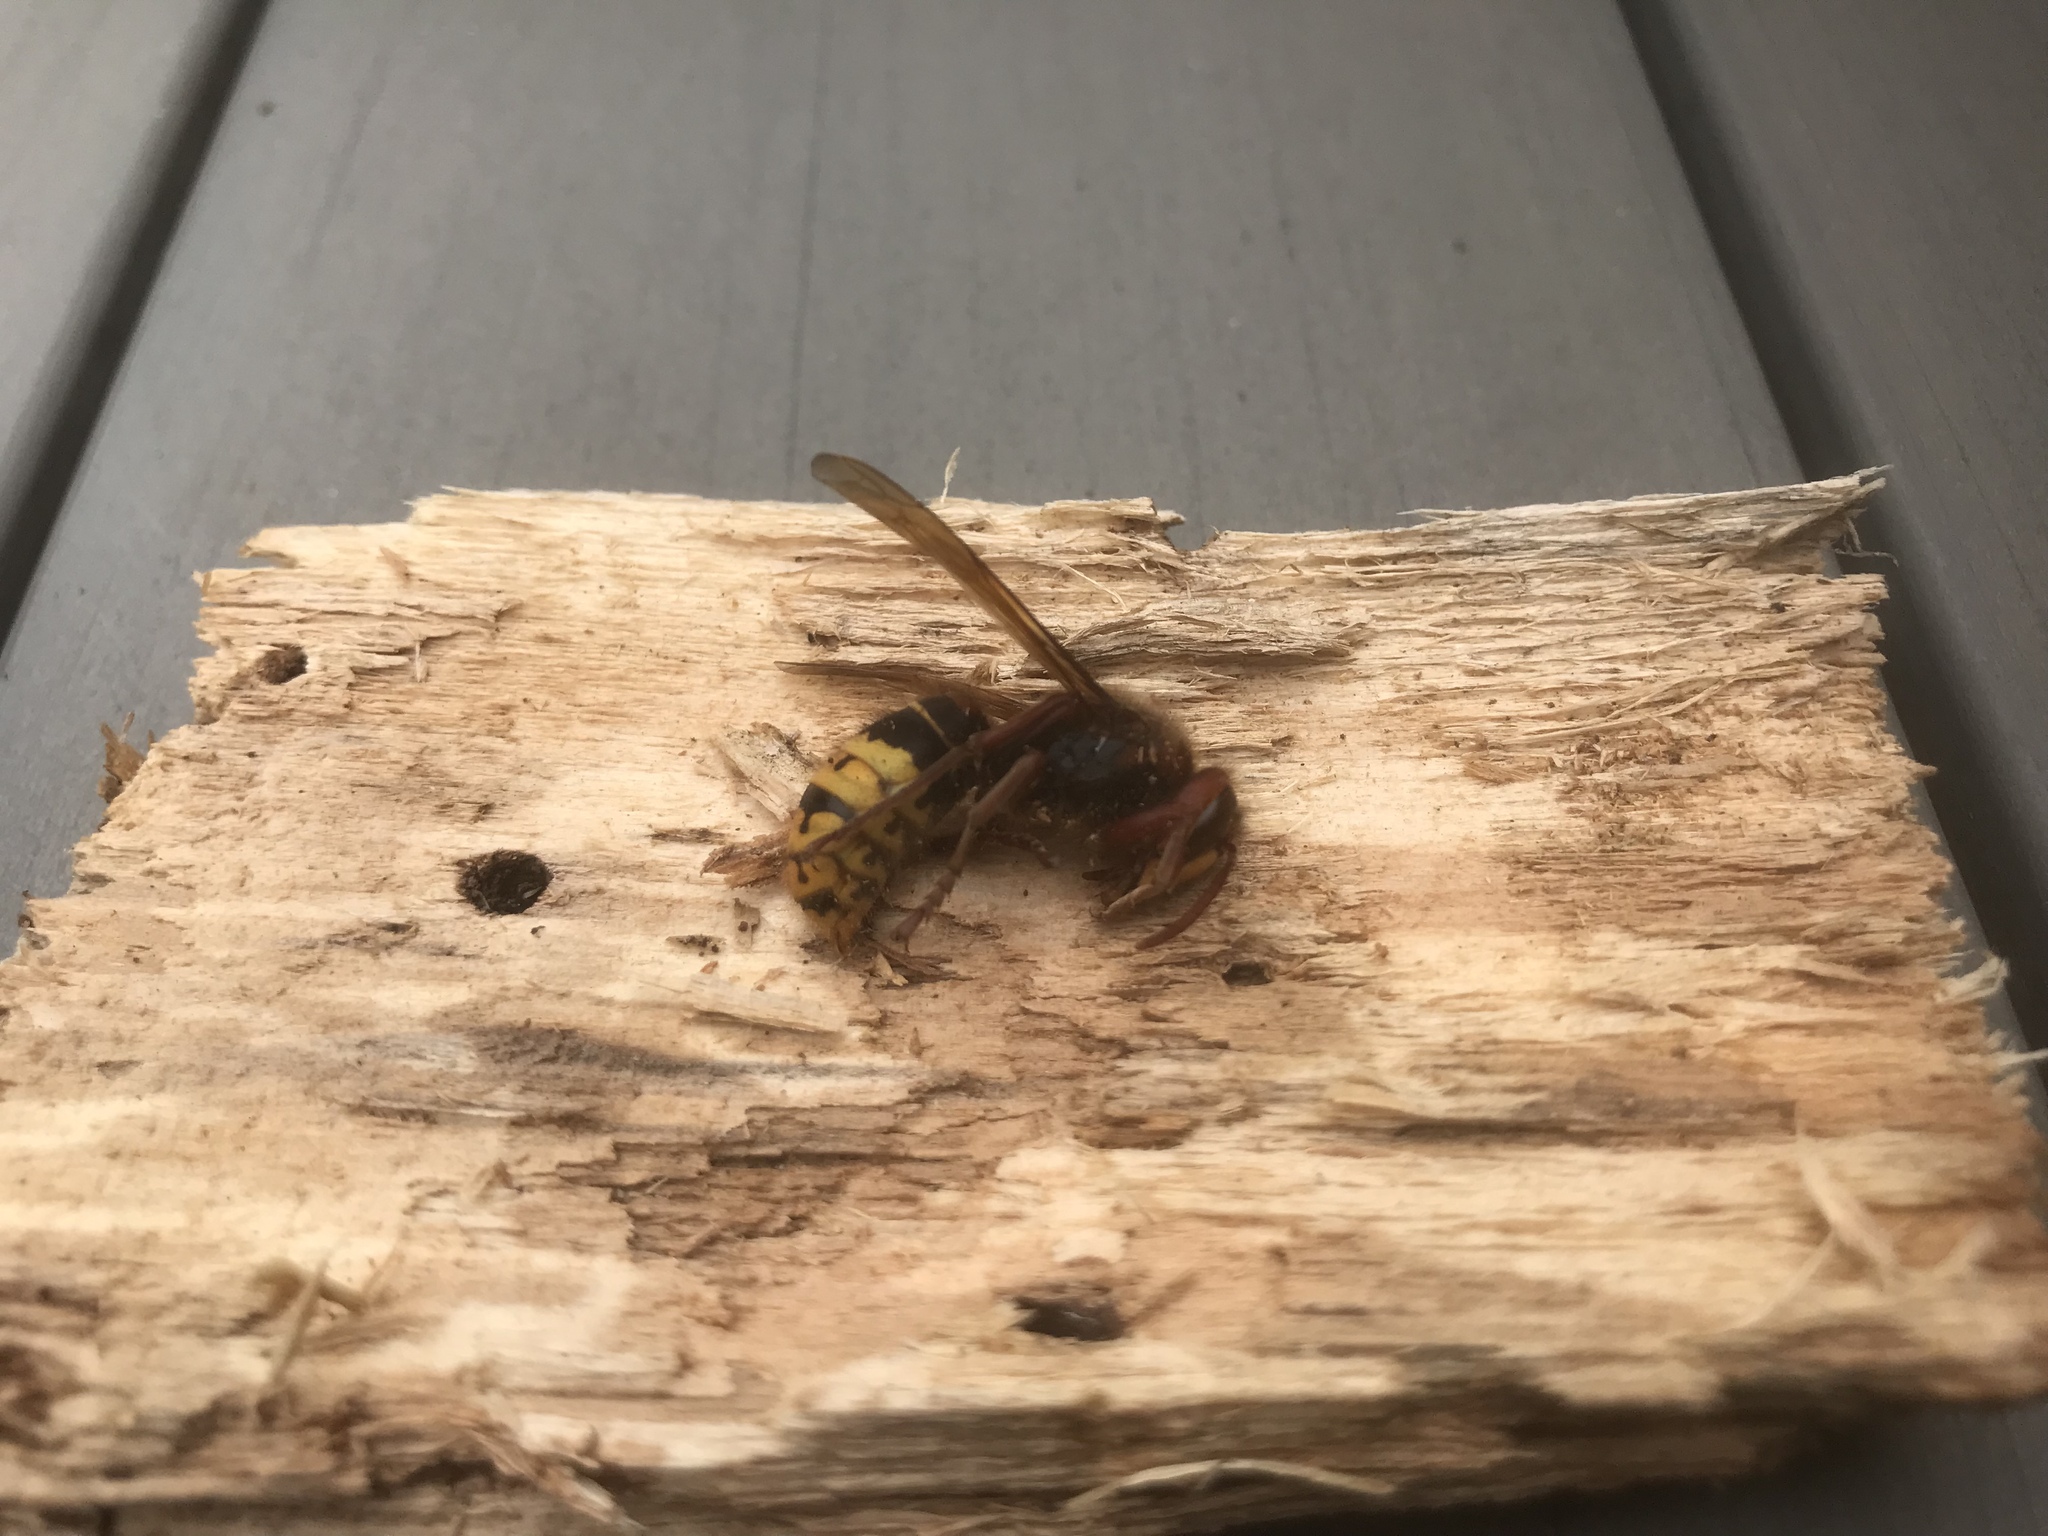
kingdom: Animalia
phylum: Arthropoda
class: Insecta
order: Hymenoptera
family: Vespidae
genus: Vespa
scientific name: Vespa crabro
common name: Hornet
